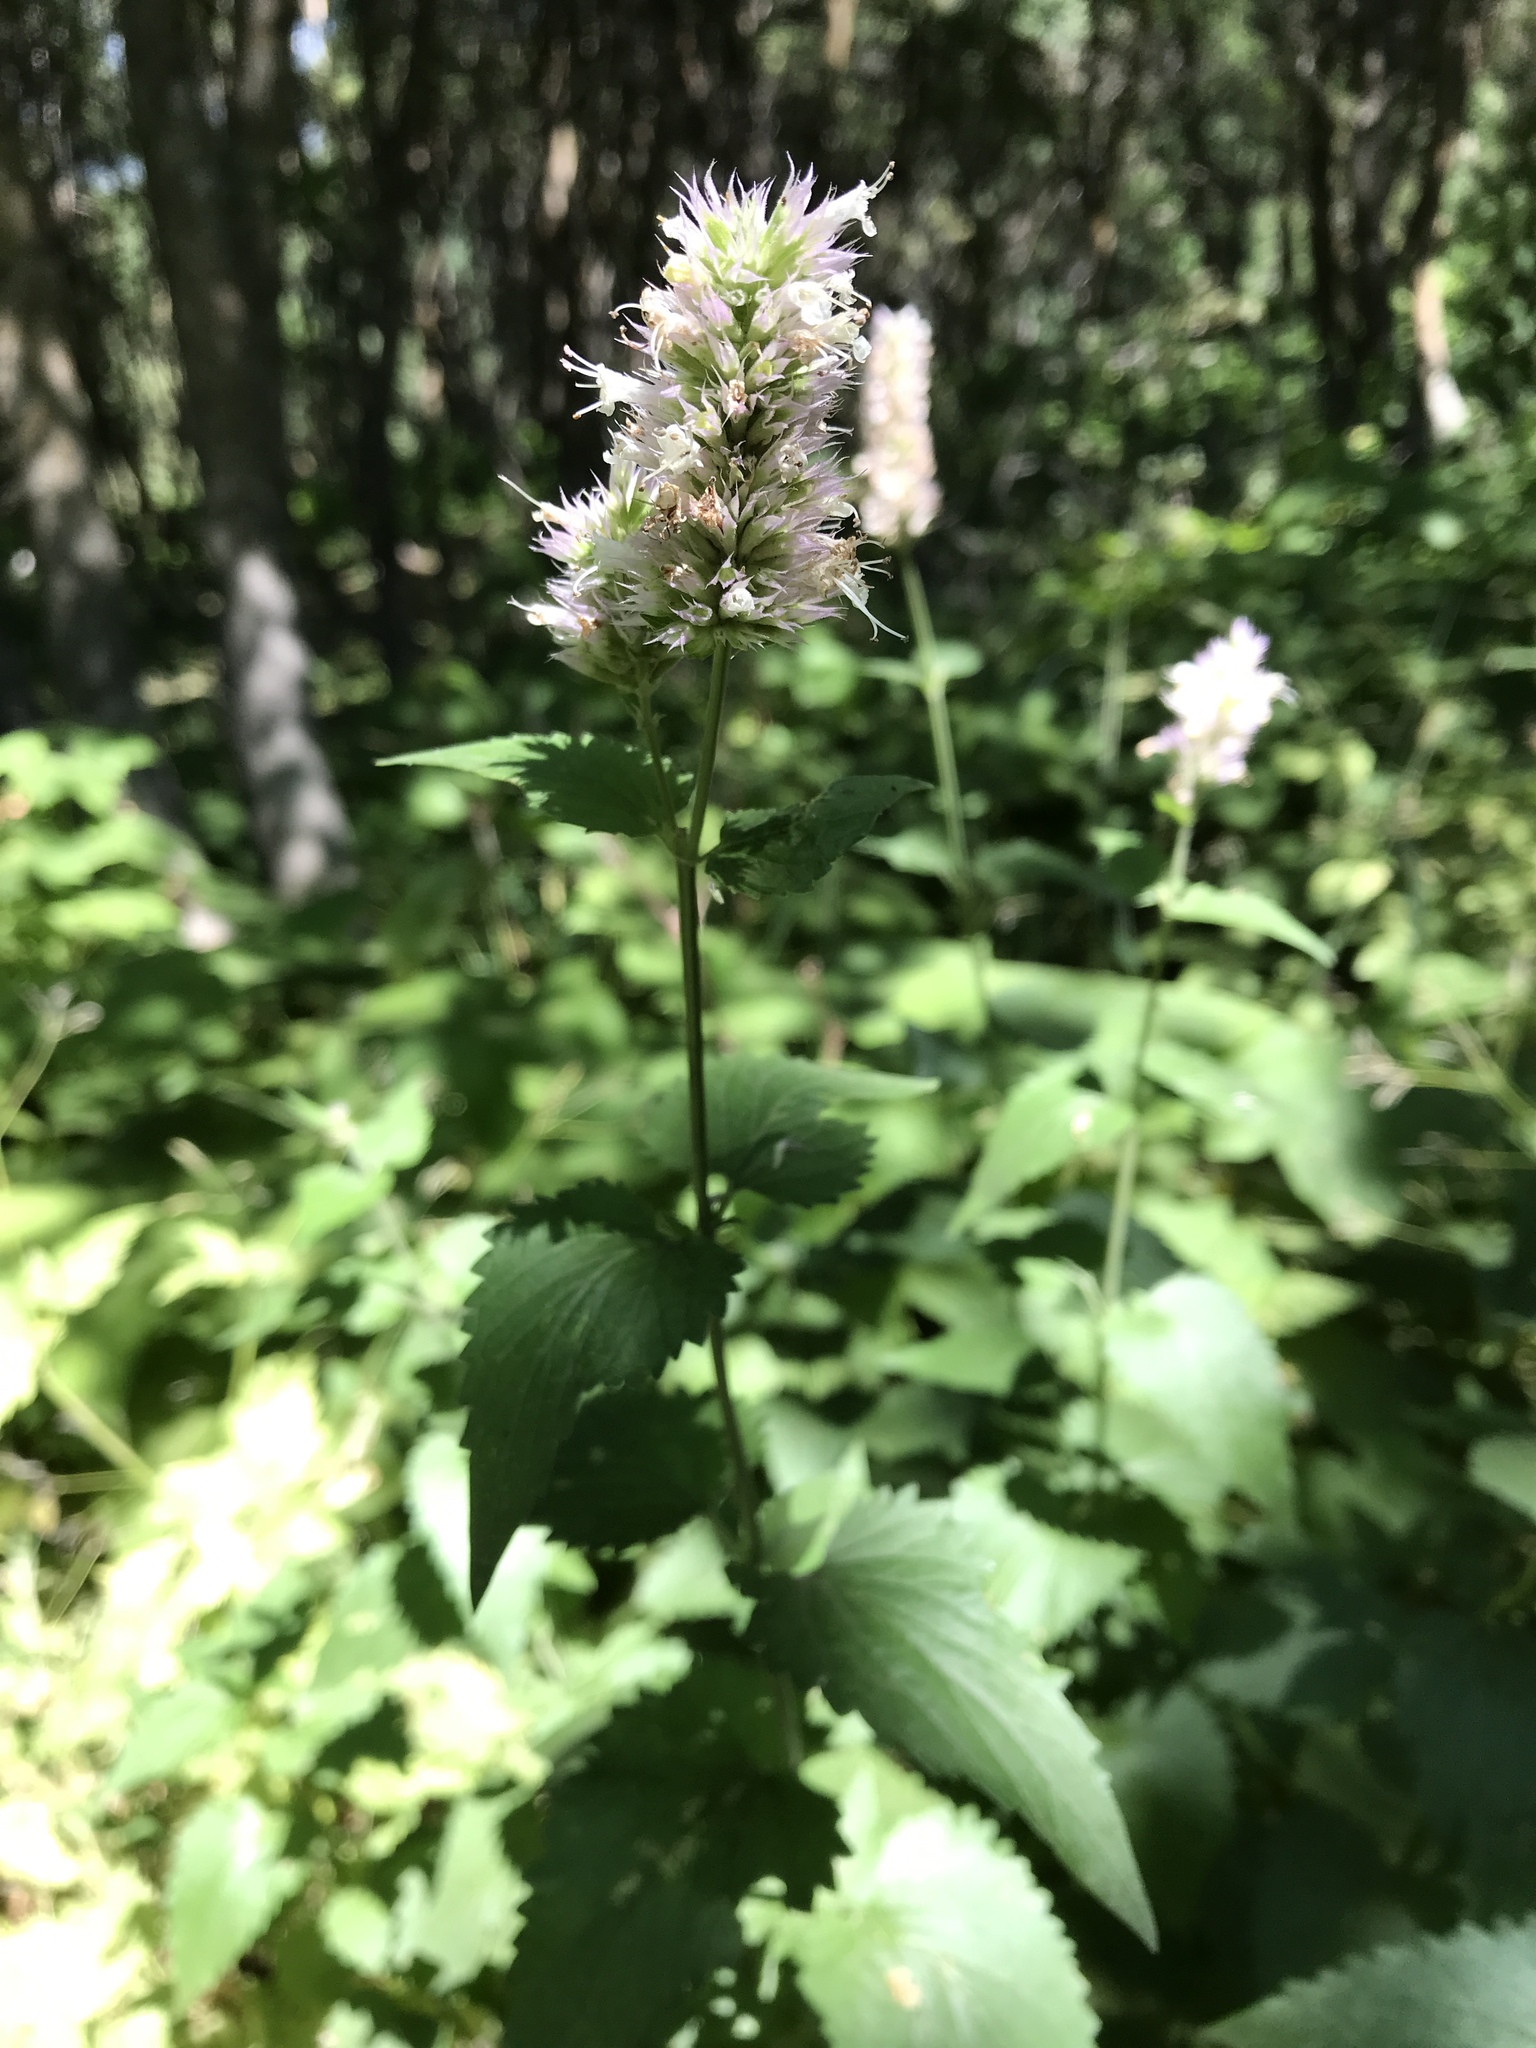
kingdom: Plantae
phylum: Tracheophyta
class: Magnoliopsida
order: Lamiales
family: Lamiaceae
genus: Agastache
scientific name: Agastache urticifolia
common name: Horsemint giant hyssop
